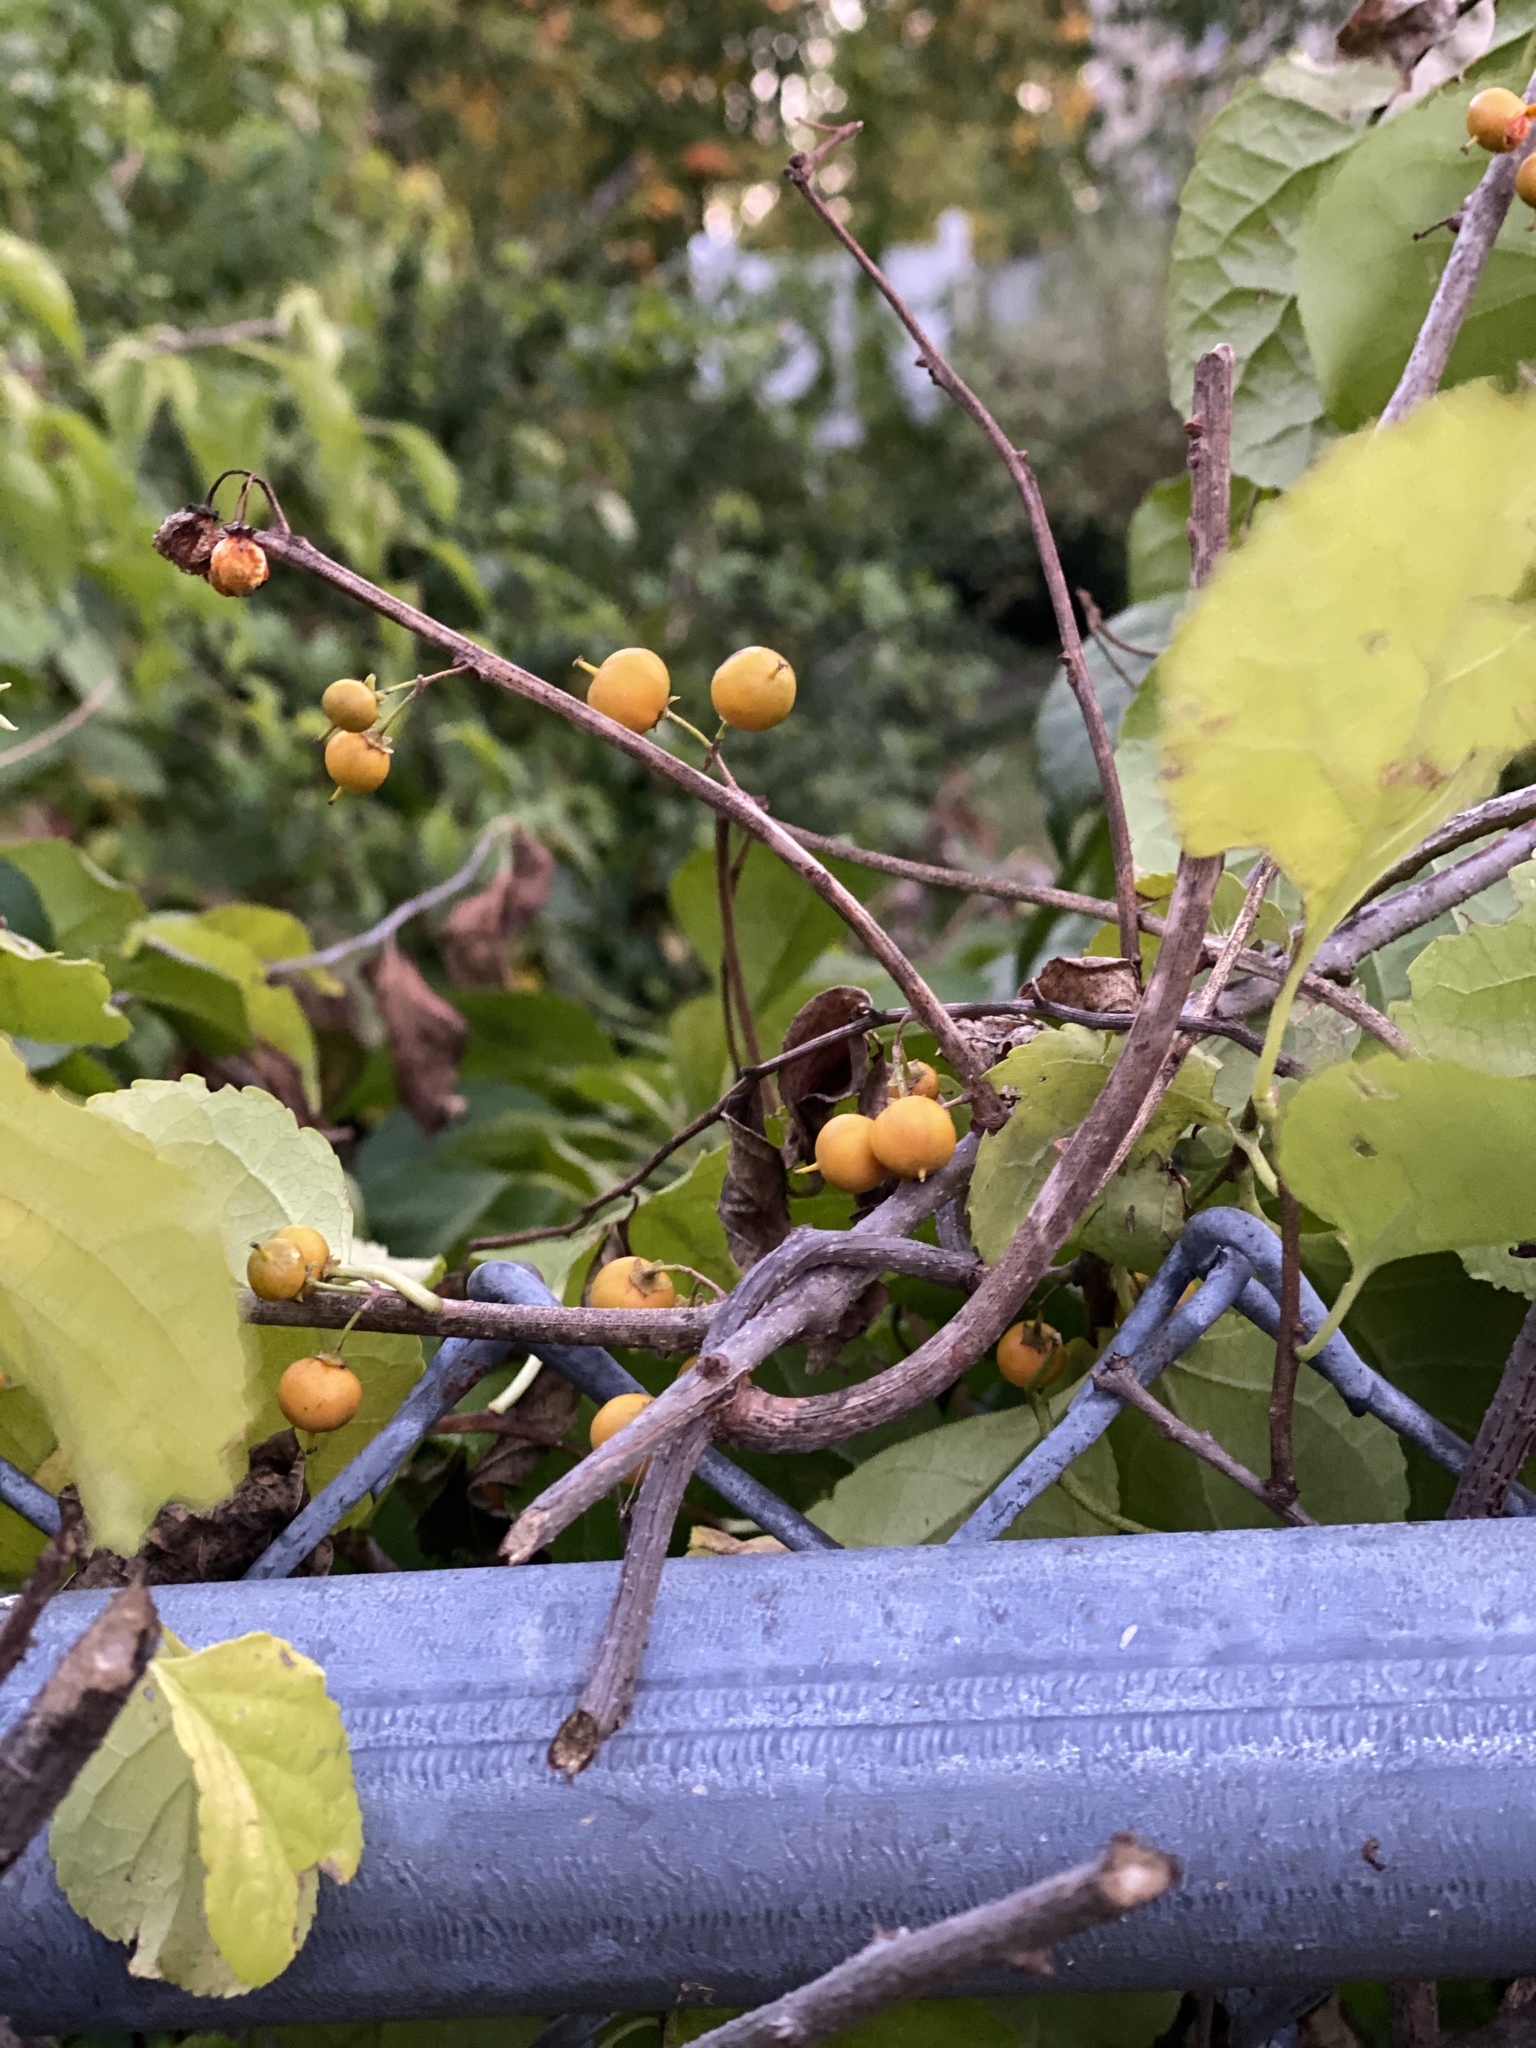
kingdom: Plantae
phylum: Tracheophyta
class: Magnoliopsida
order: Celastrales
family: Celastraceae
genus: Celastrus
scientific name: Celastrus orbiculatus
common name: Oriental bittersweet
